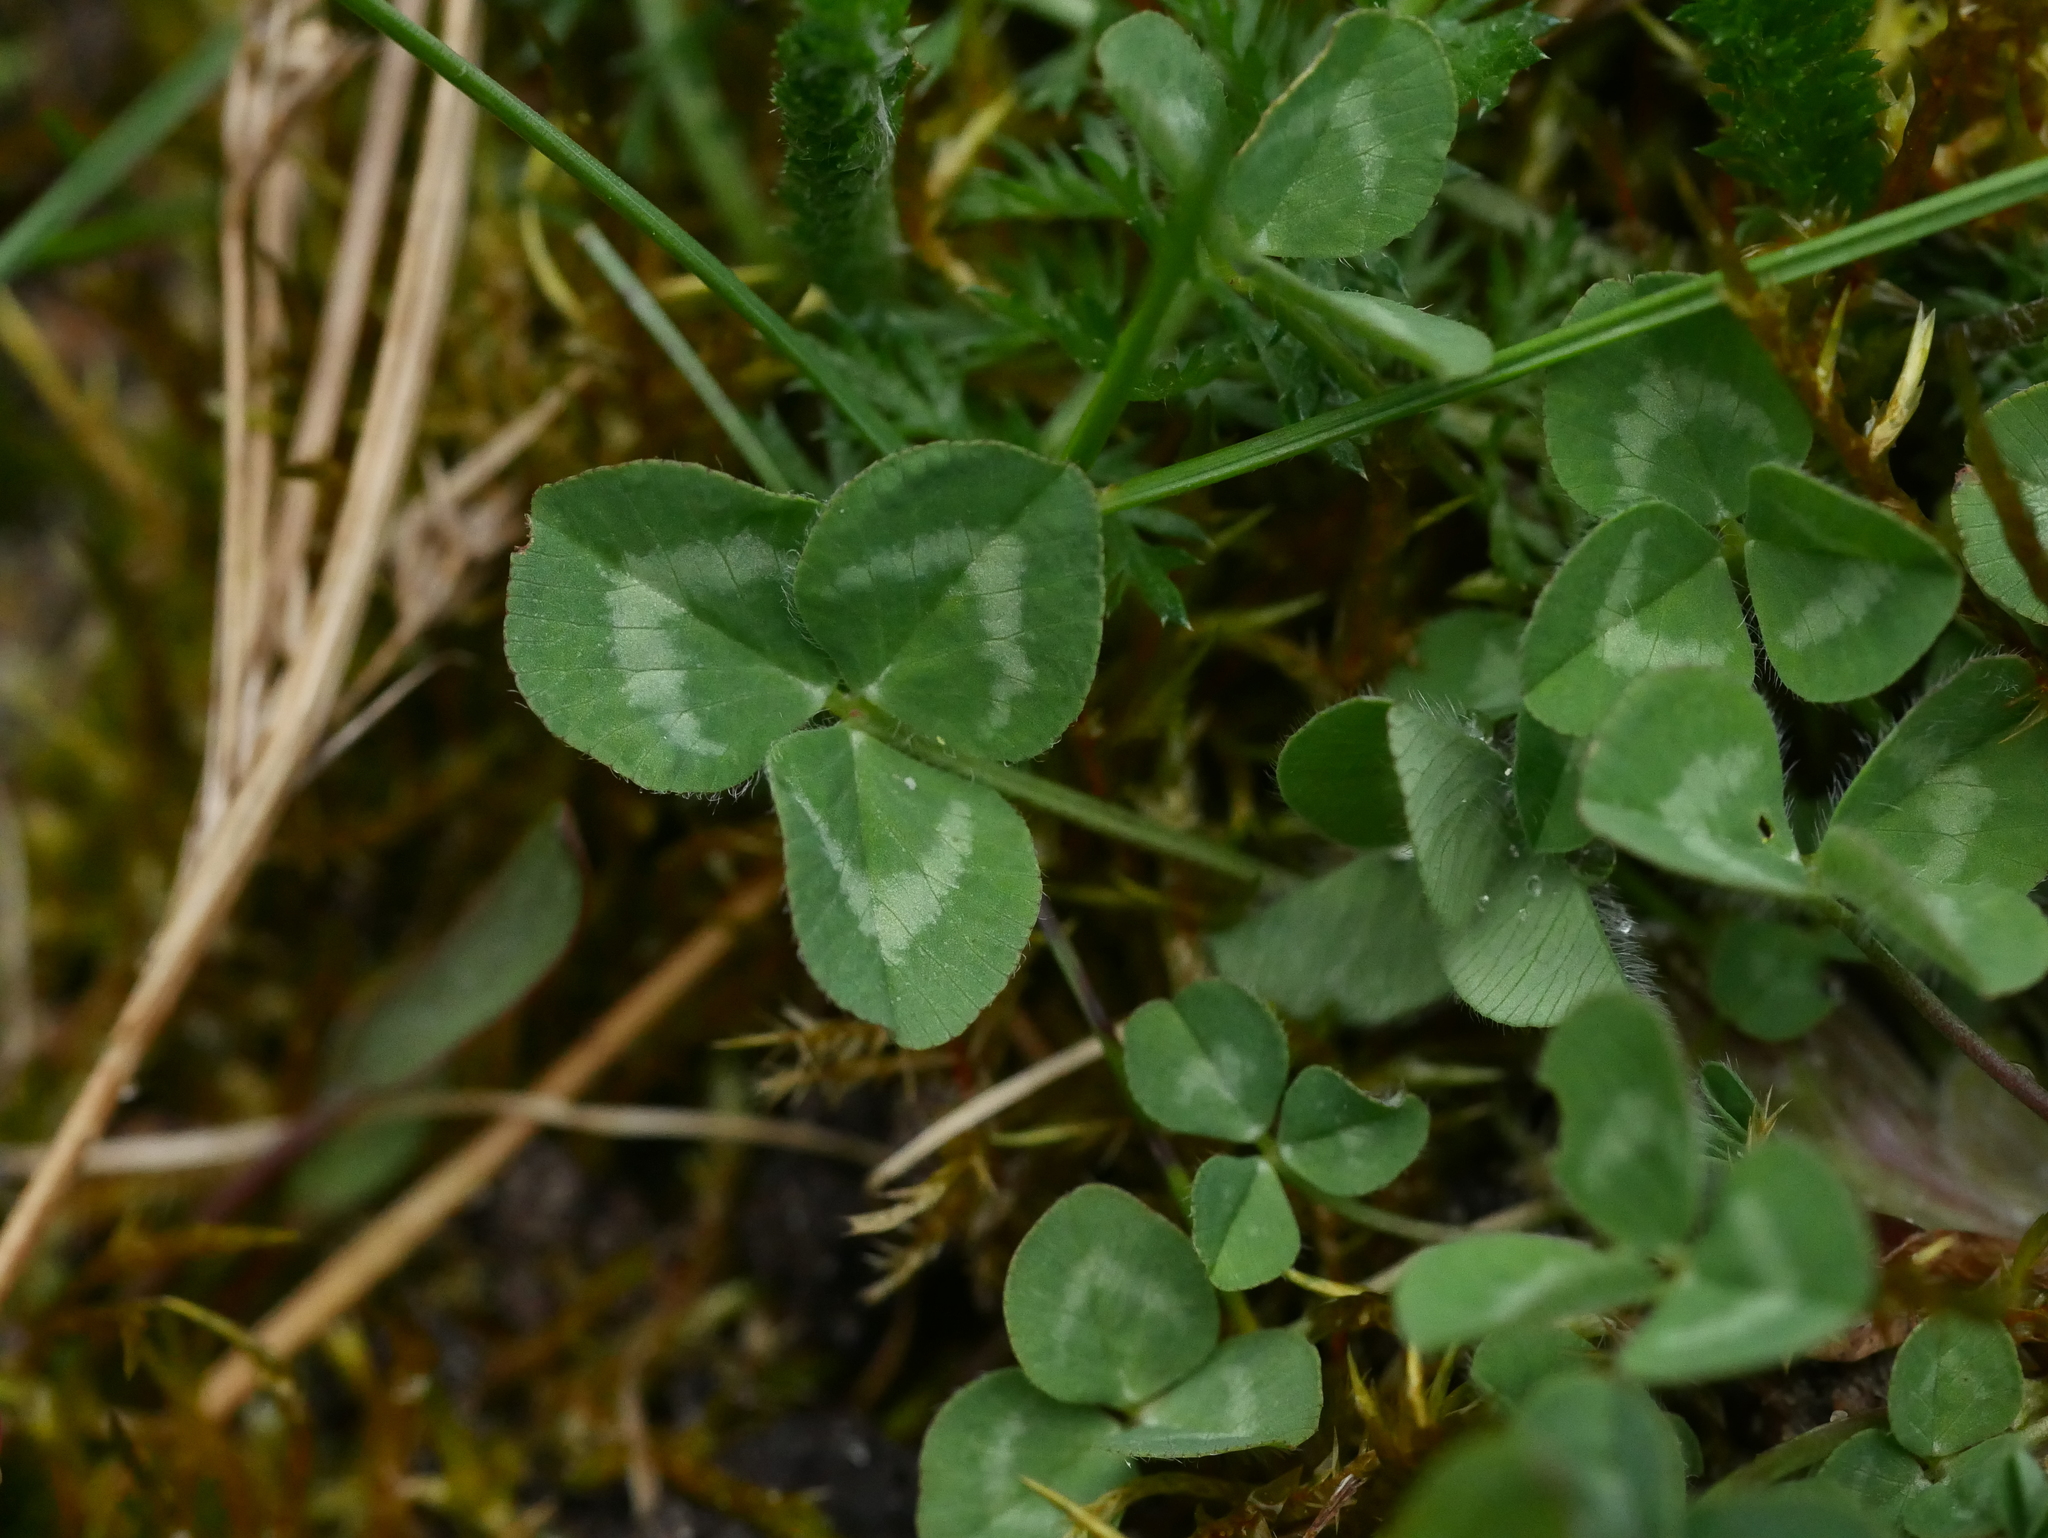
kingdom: Plantae
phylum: Tracheophyta
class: Magnoliopsida
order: Fabales
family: Fabaceae
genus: Trifolium
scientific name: Trifolium repens
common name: White clover
